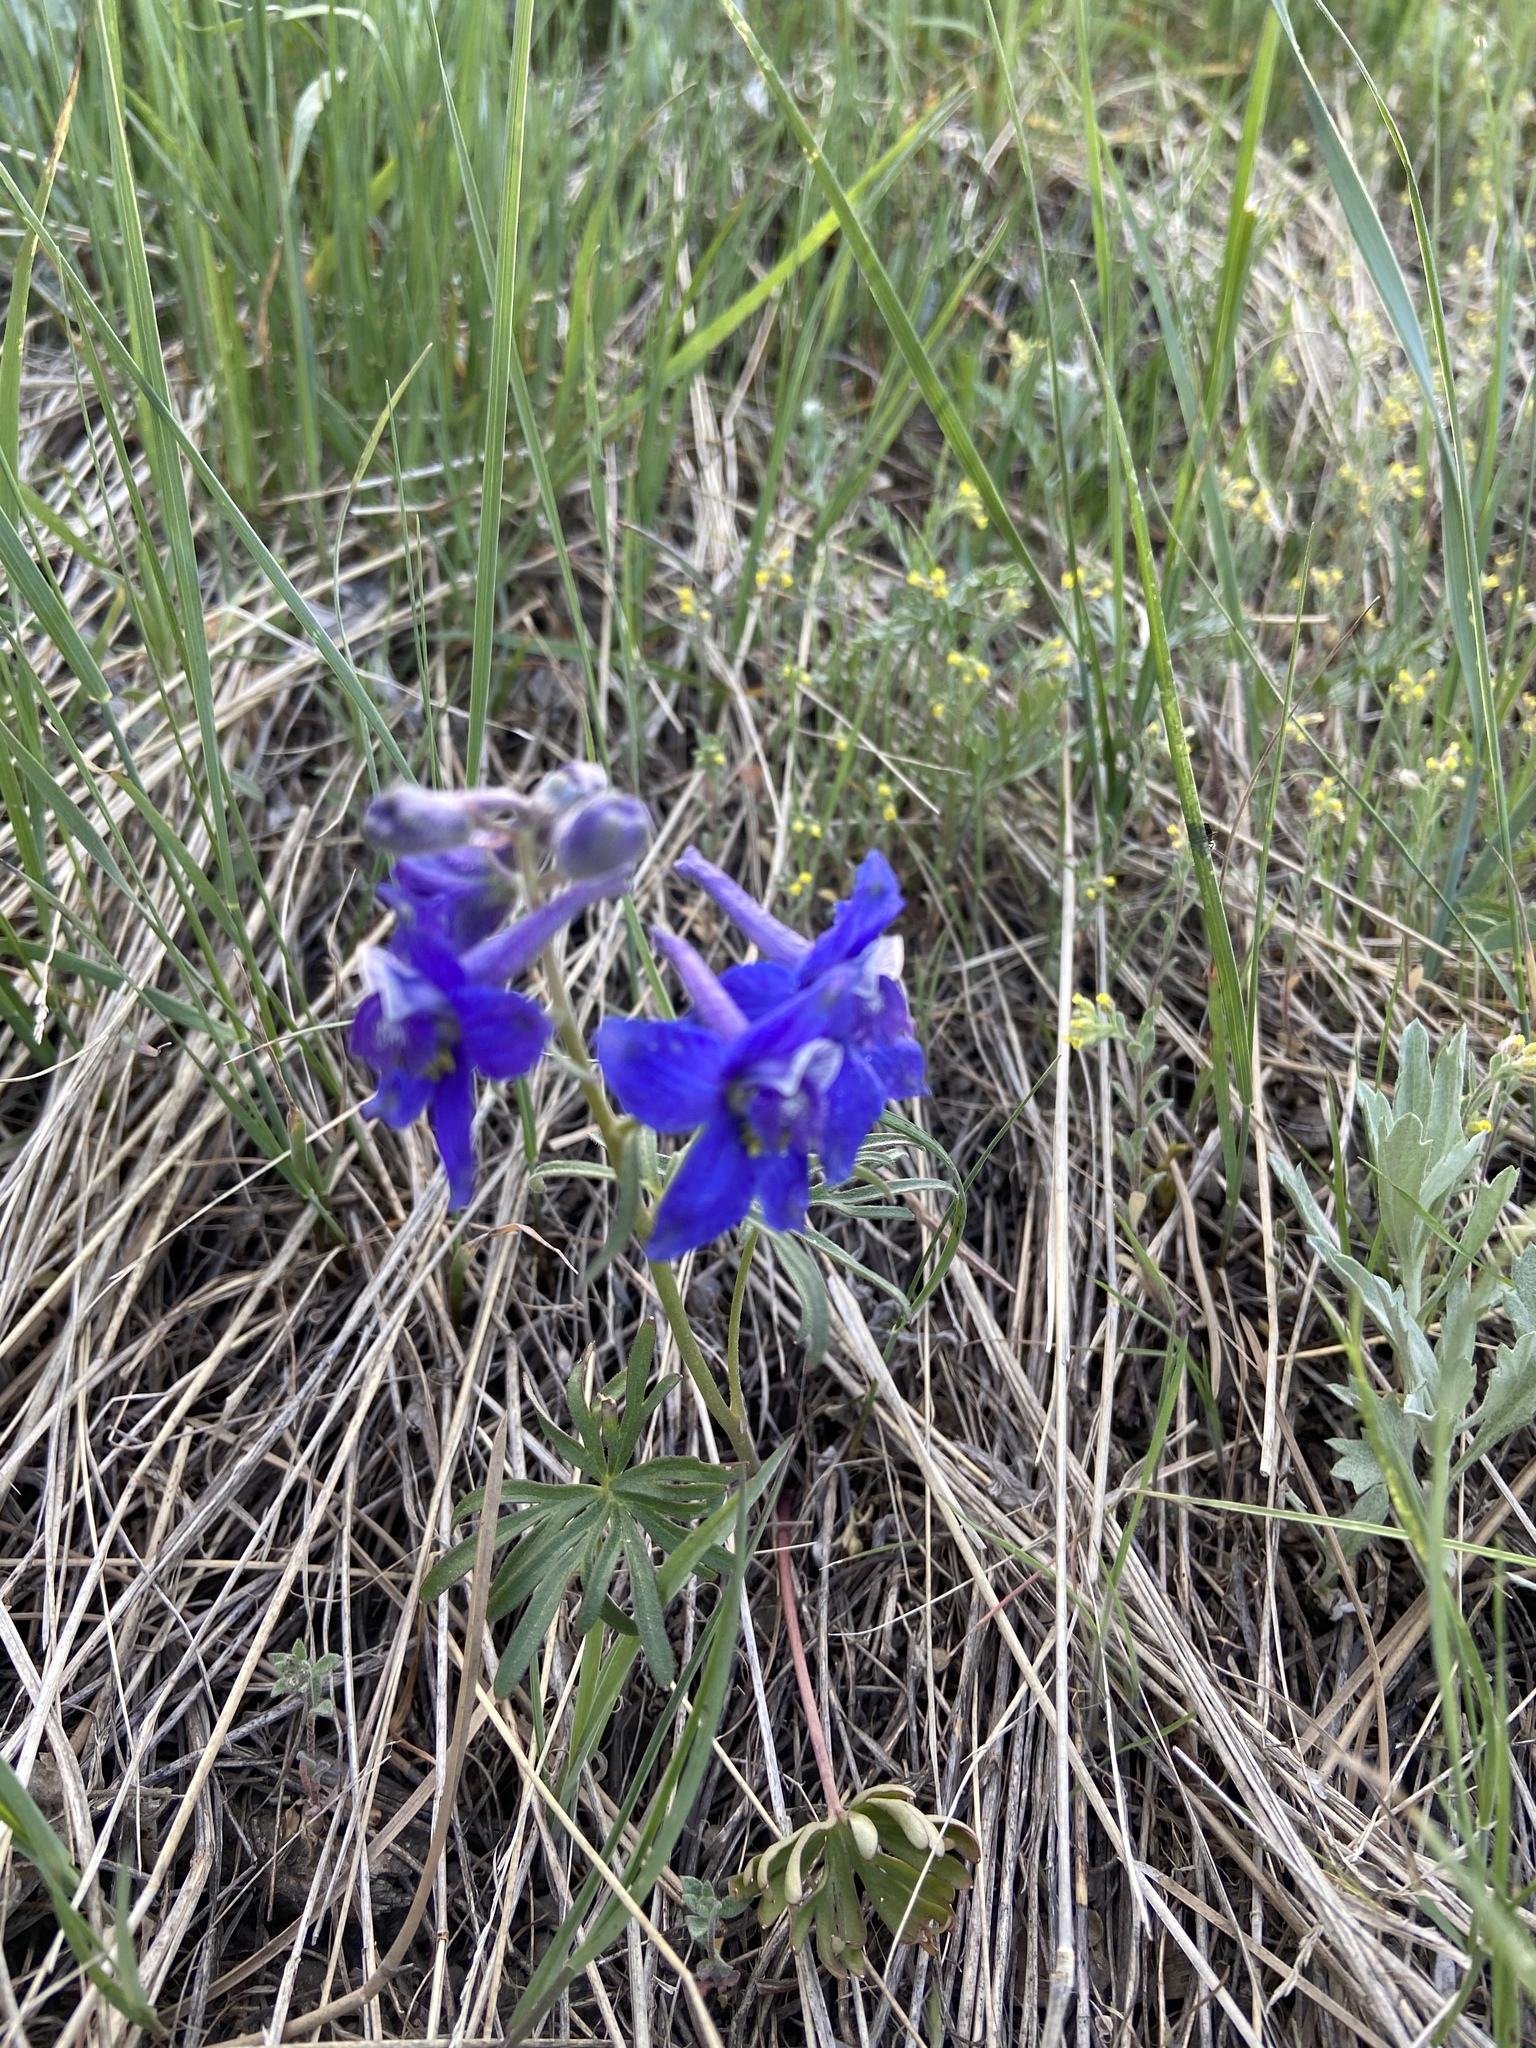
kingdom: Plantae
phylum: Tracheophyta
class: Magnoliopsida
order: Ranunculales
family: Ranunculaceae
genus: Delphinium
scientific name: Delphinium nuttallianum
